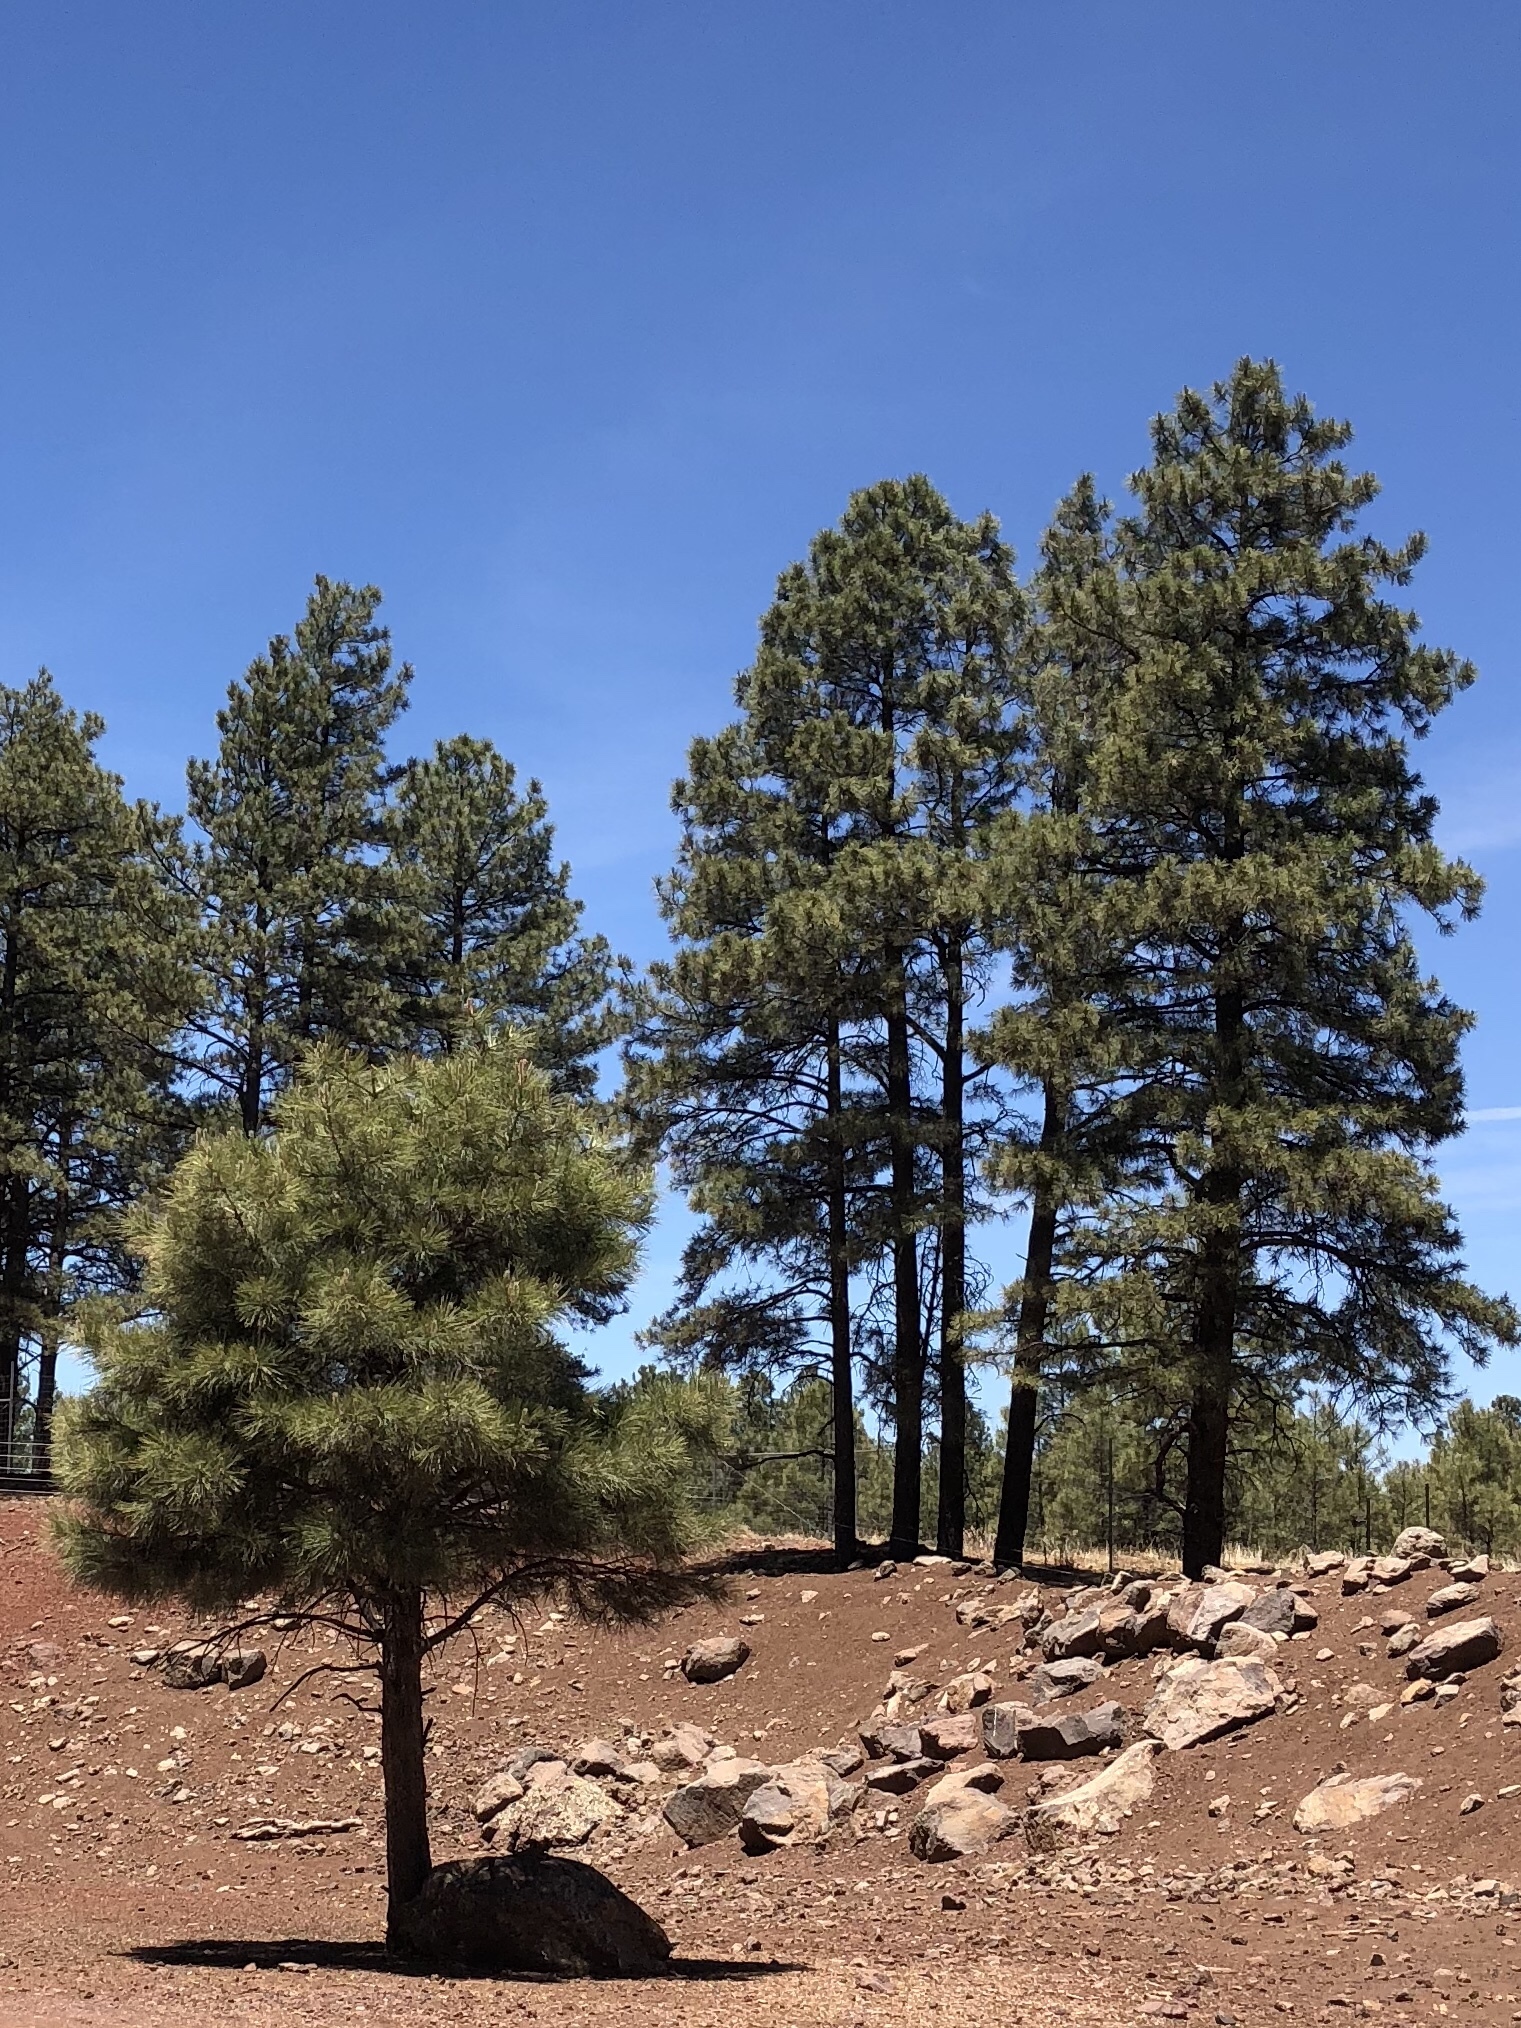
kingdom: Plantae
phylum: Tracheophyta
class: Pinopsida
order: Pinales
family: Pinaceae
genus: Pinus
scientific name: Pinus ponderosa
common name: Western yellow-pine
